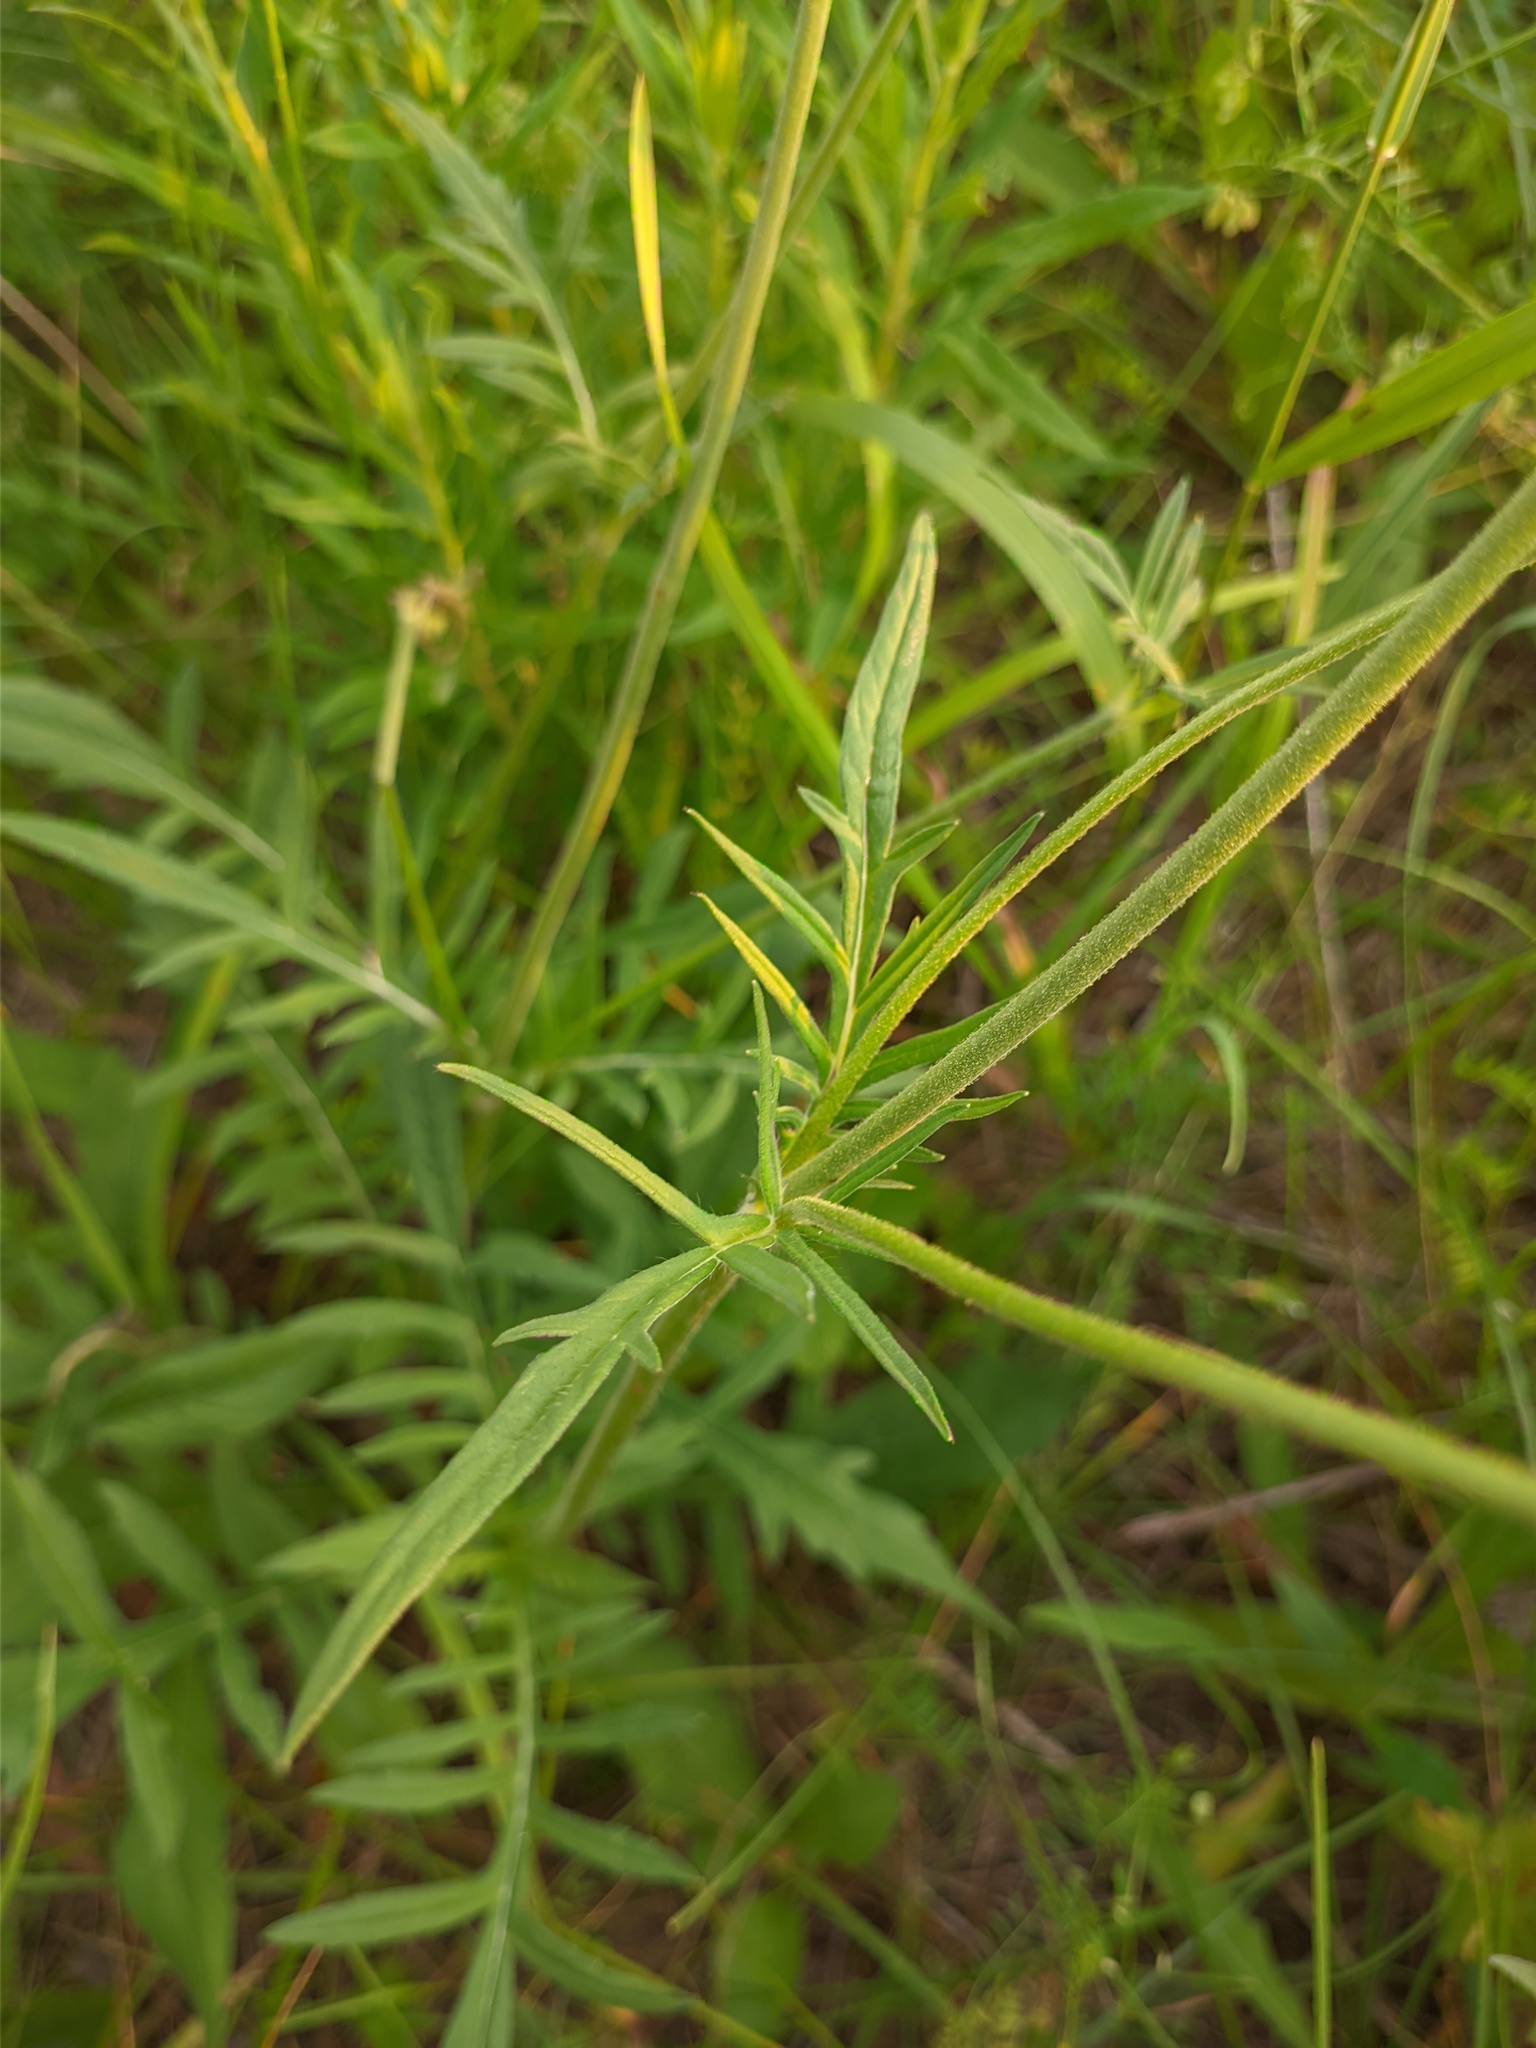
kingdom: Plantae
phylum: Tracheophyta
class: Magnoliopsida
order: Dipsacales
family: Caprifoliaceae
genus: Knautia
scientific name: Knautia arvensis
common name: Field scabiosa
